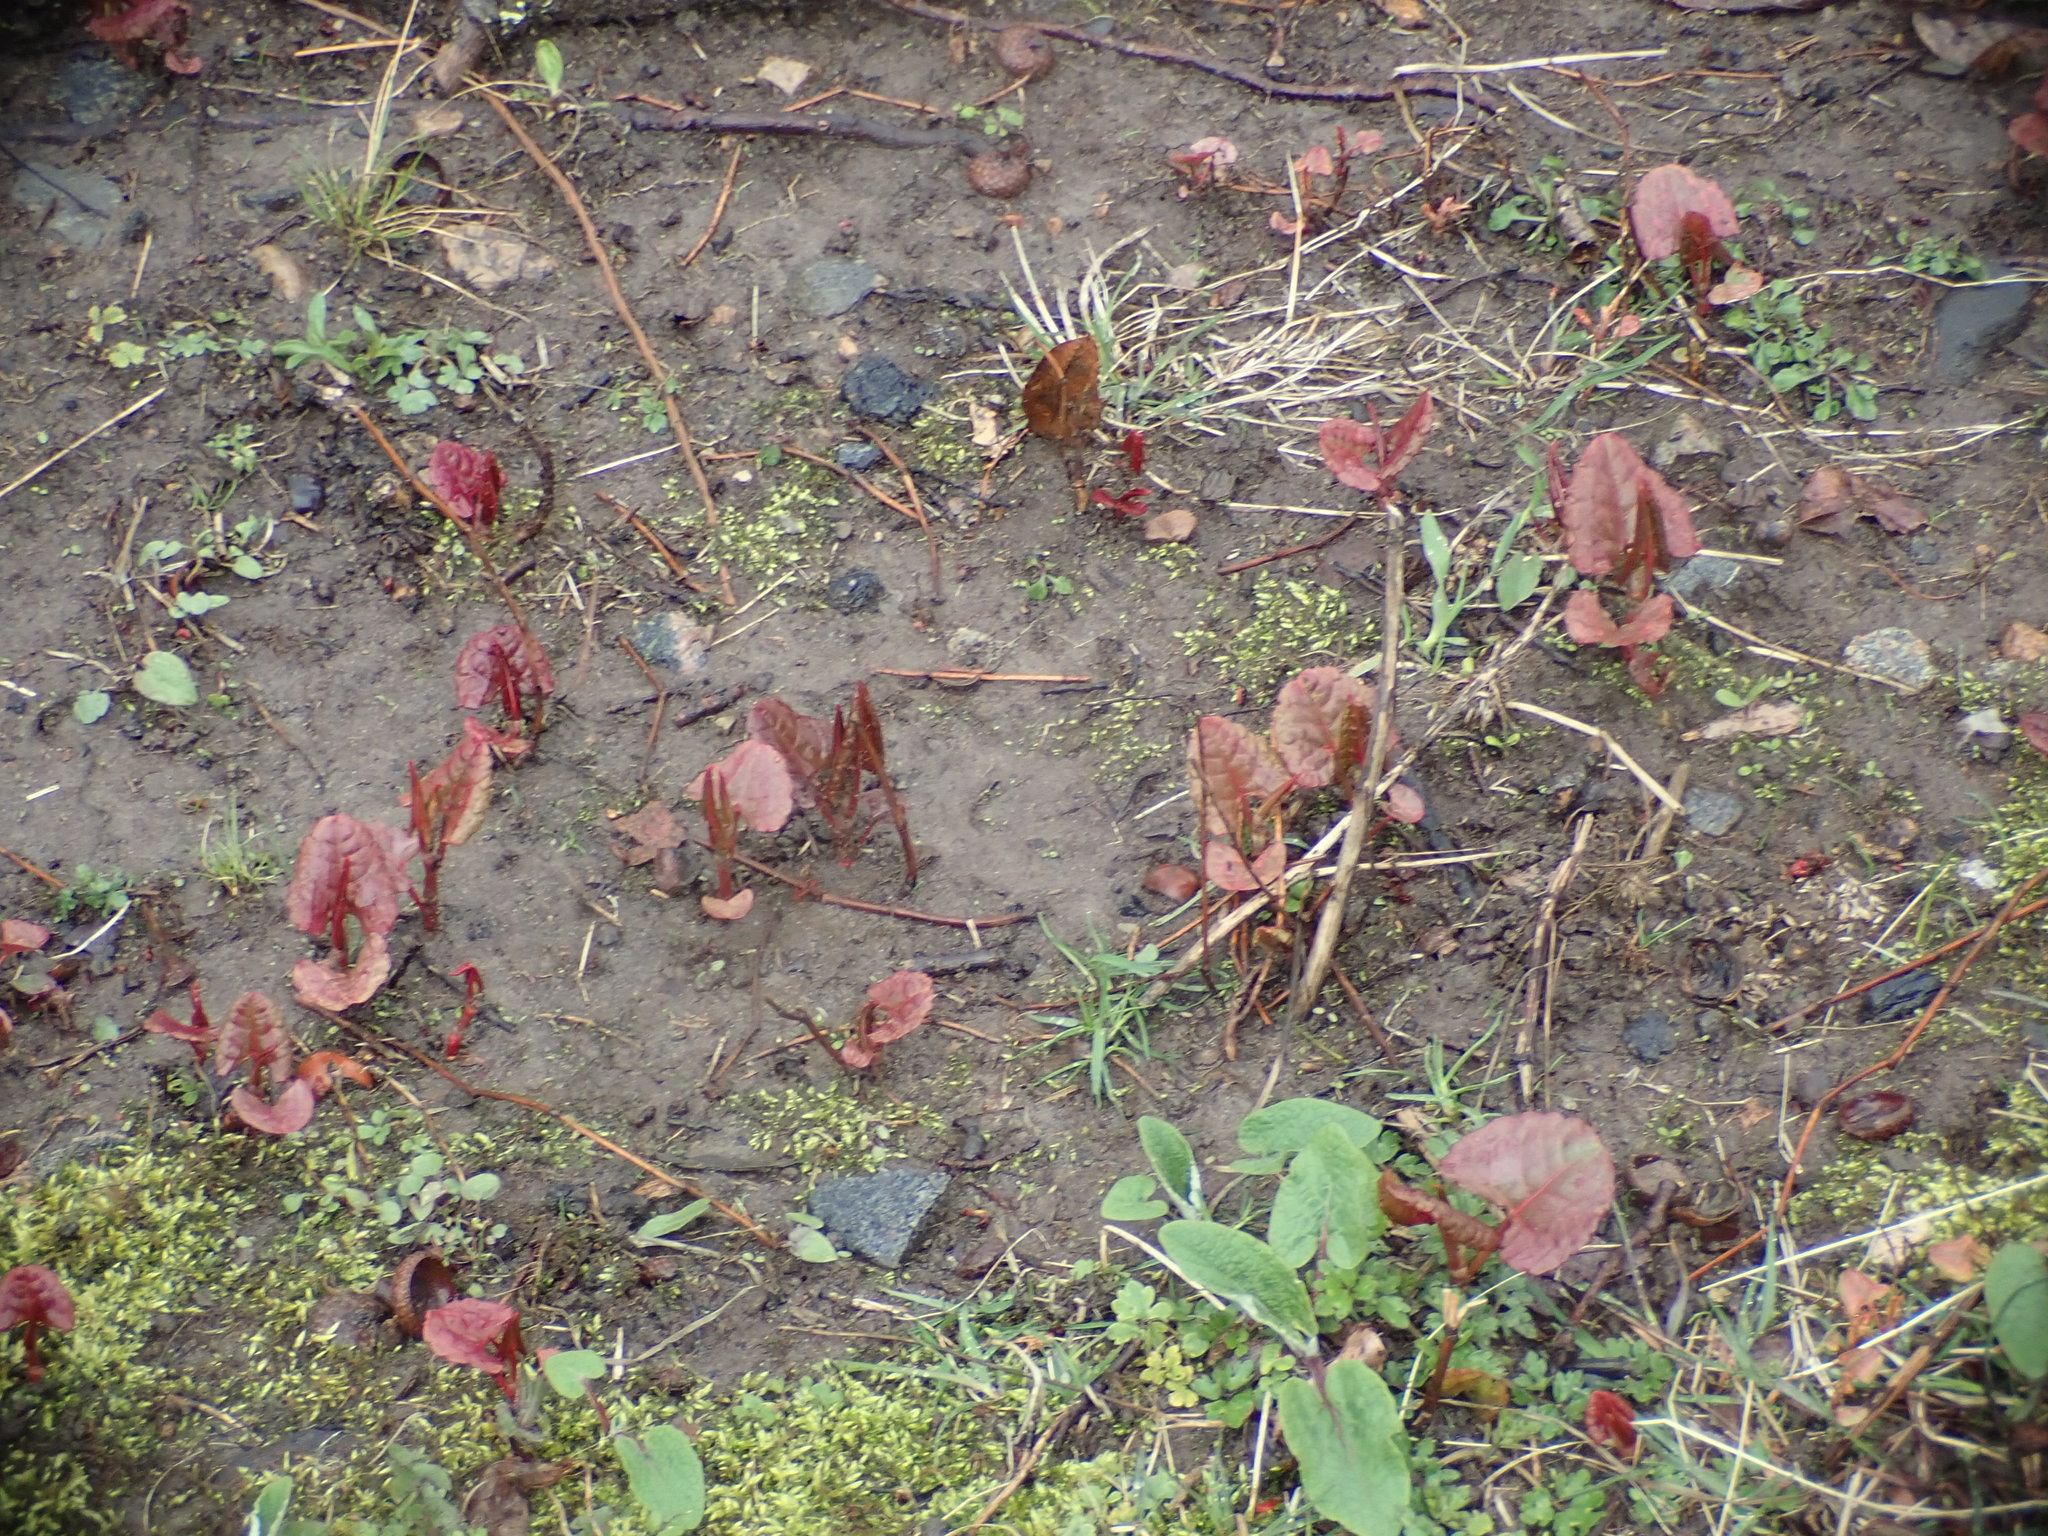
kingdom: Plantae
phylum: Tracheophyta
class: Magnoliopsida
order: Caryophyllales
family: Polygonaceae
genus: Reynoutria
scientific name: Reynoutria japonica
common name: Japanese knotweed
